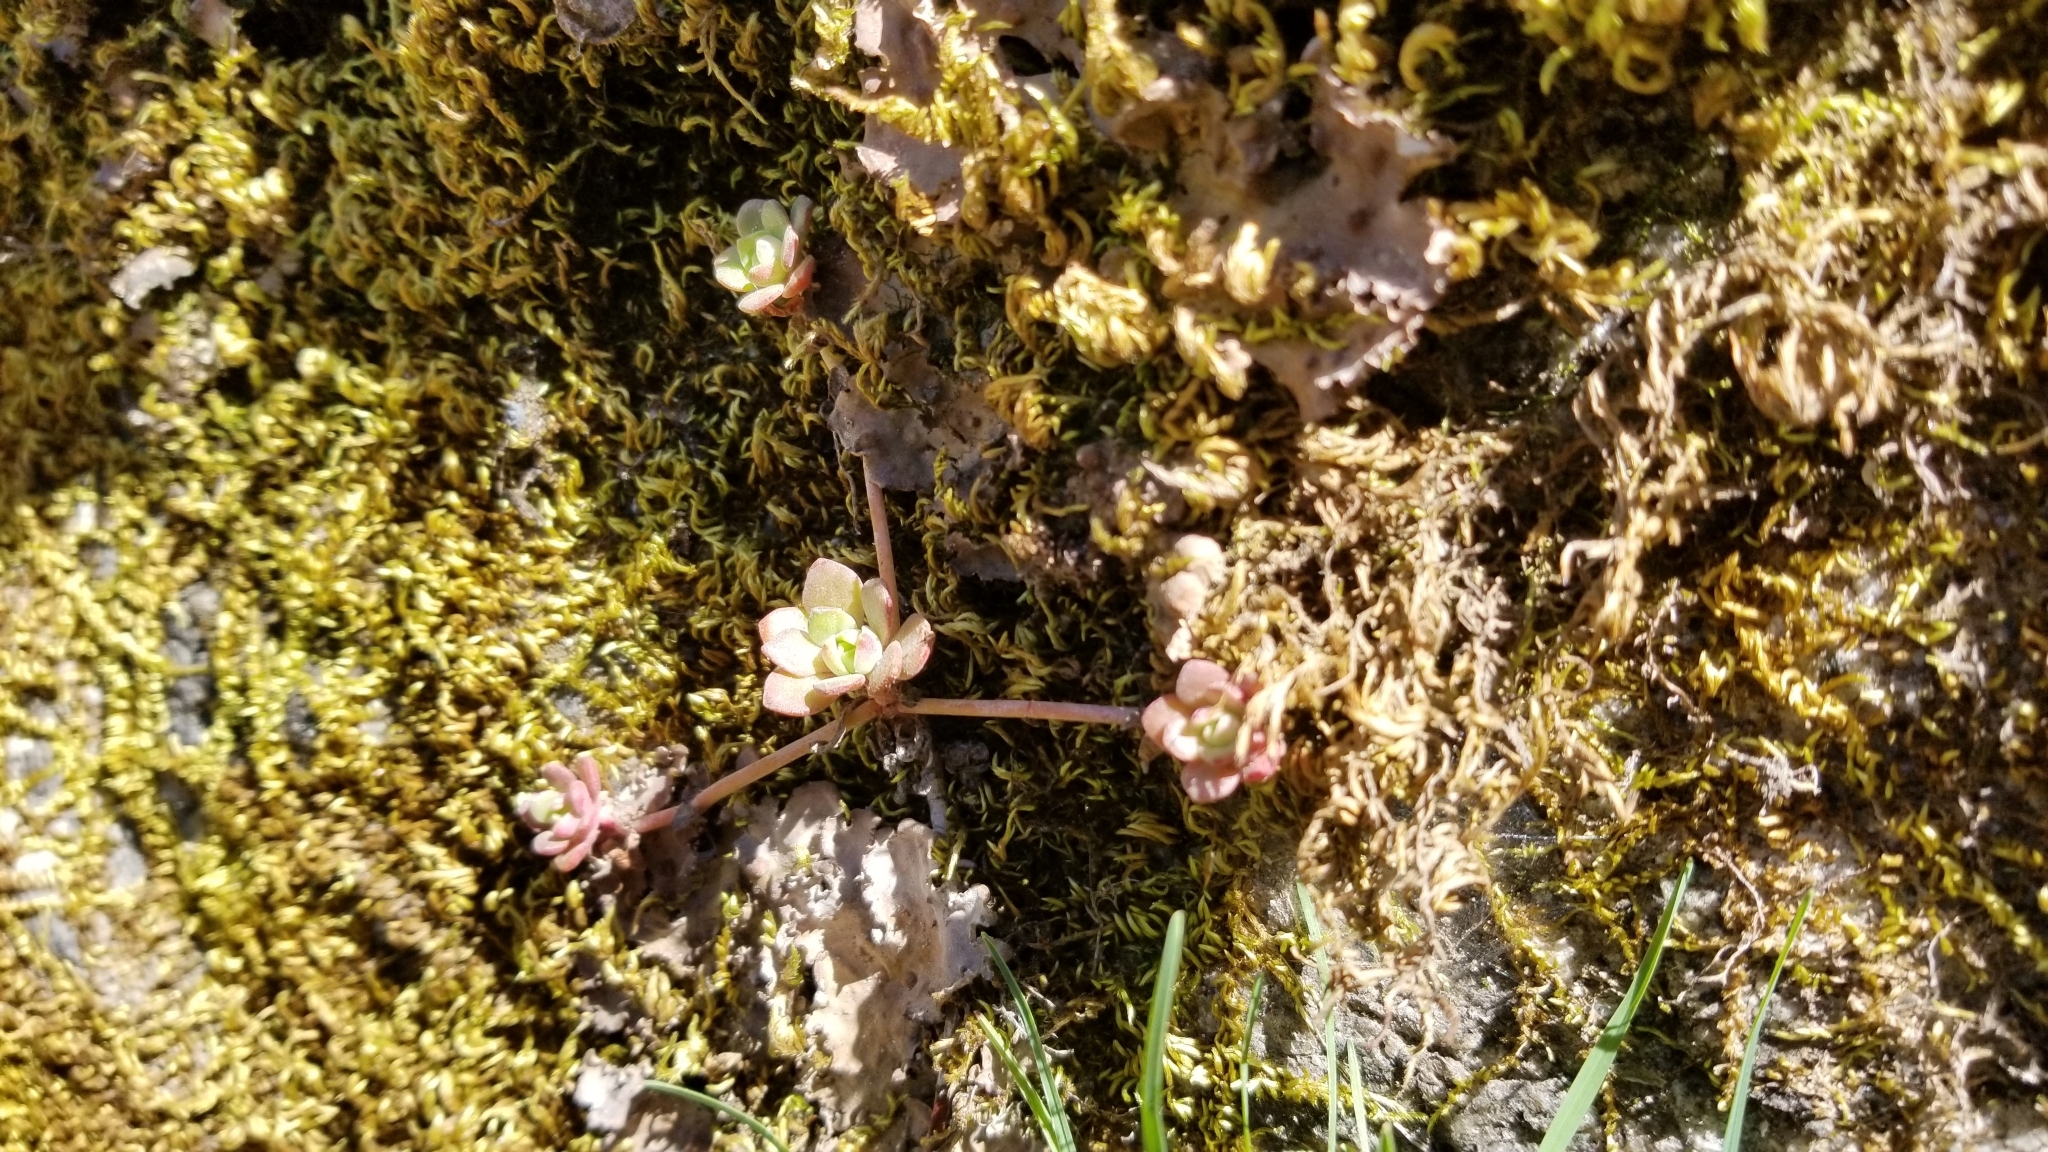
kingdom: Plantae
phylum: Tracheophyta
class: Magnoliopsida
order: Saxifragales
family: Crassulaceae
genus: Sedum
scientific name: Sedum spathulifolium
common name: Colorado stonecrop
